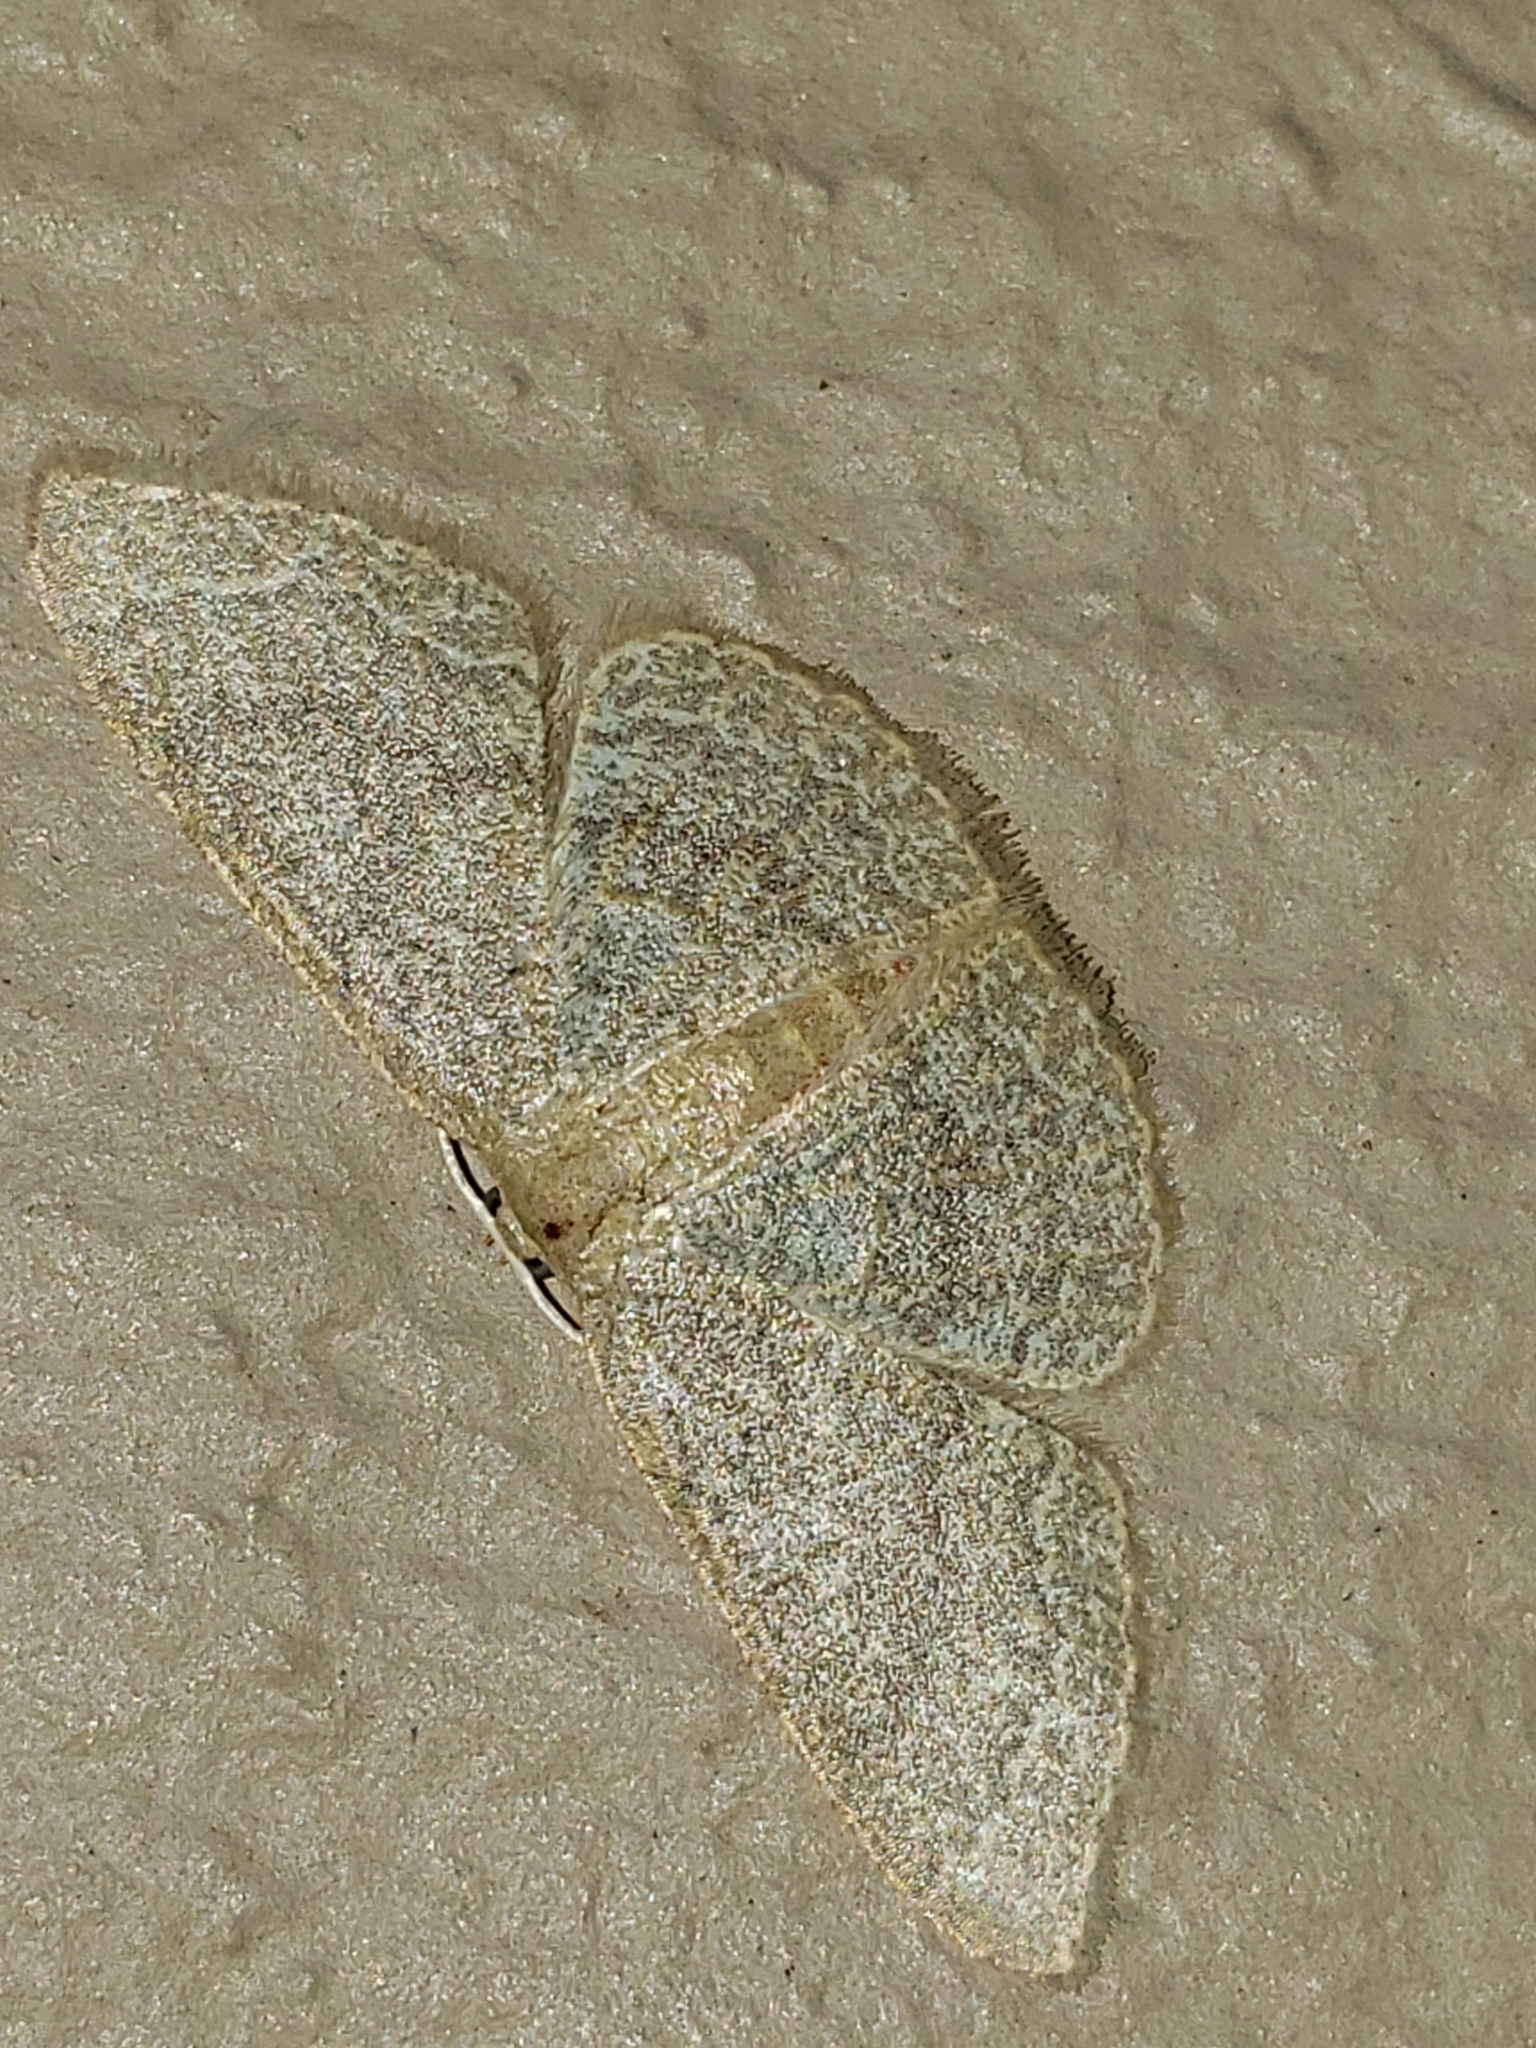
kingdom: Animalia
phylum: Arthropoda
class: Insecta
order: Lepidoptera
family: Geometridae
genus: Pleuroprucha
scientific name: Pleuroprucha insulsaria
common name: Common tan wave
